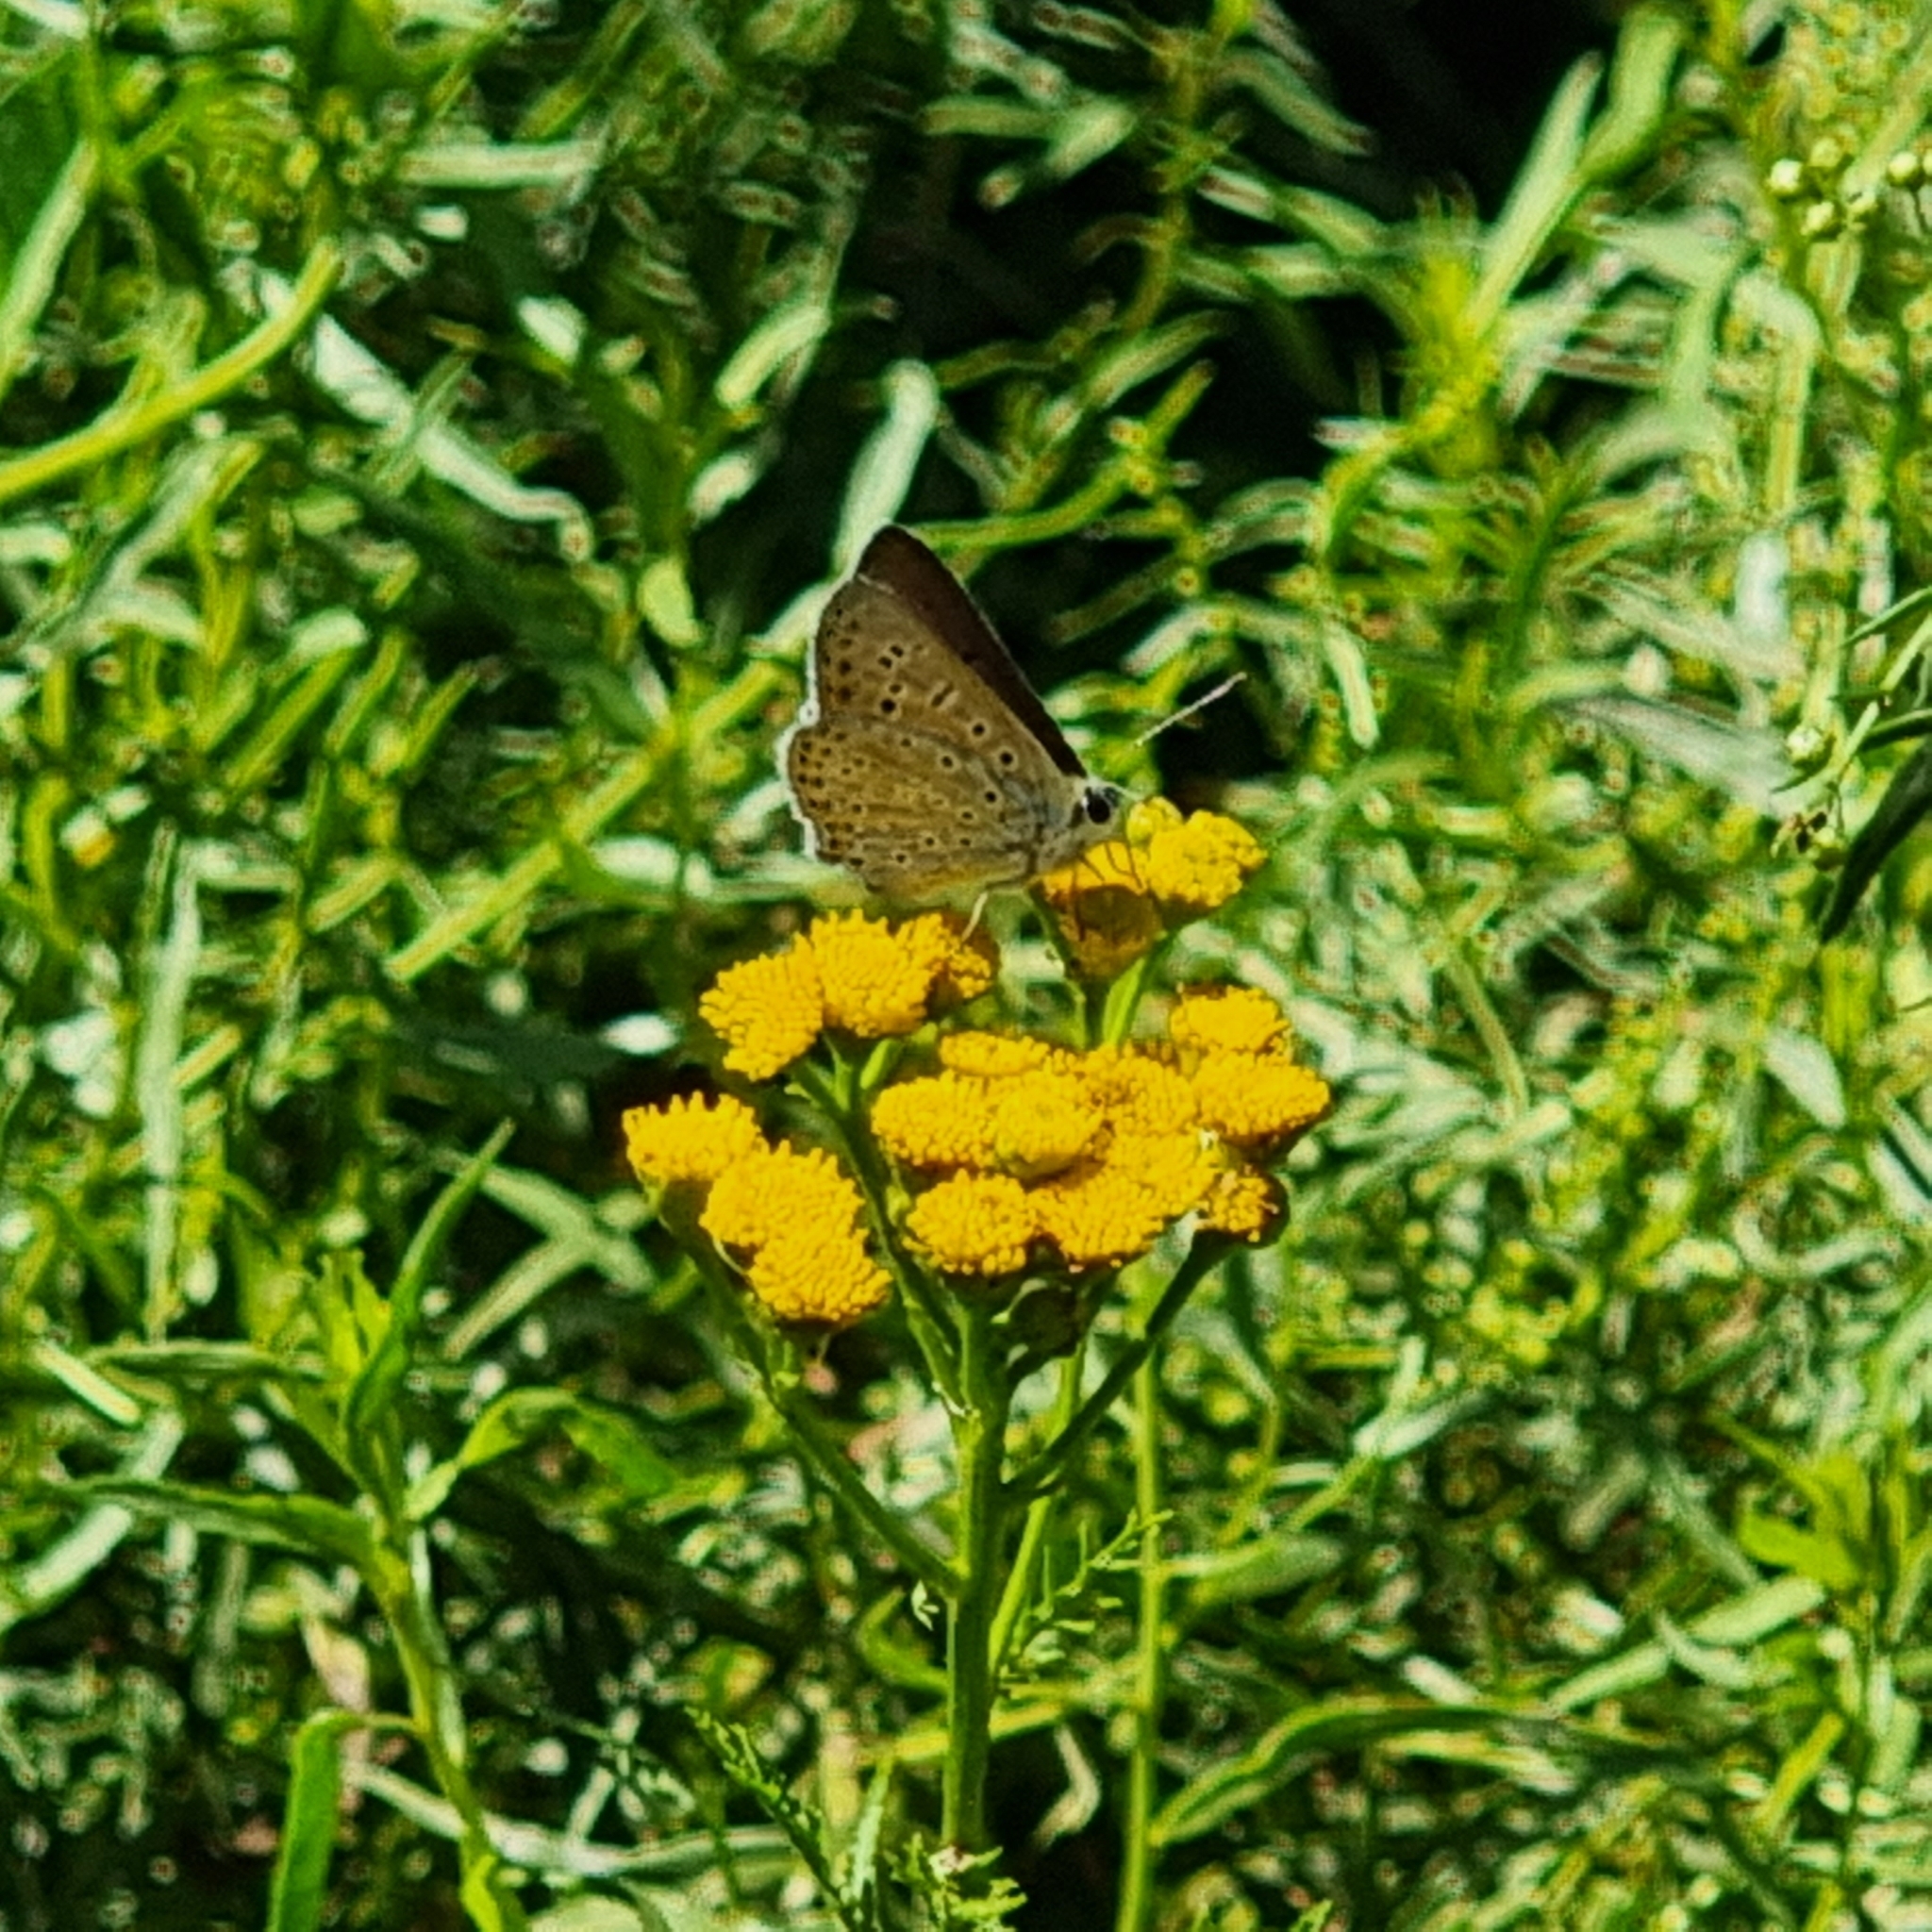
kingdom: Animalia
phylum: Arthropoda
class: Insecta
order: Lepidoptera
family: Lycaenidae
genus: Loweia
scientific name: Loweia tityrus
